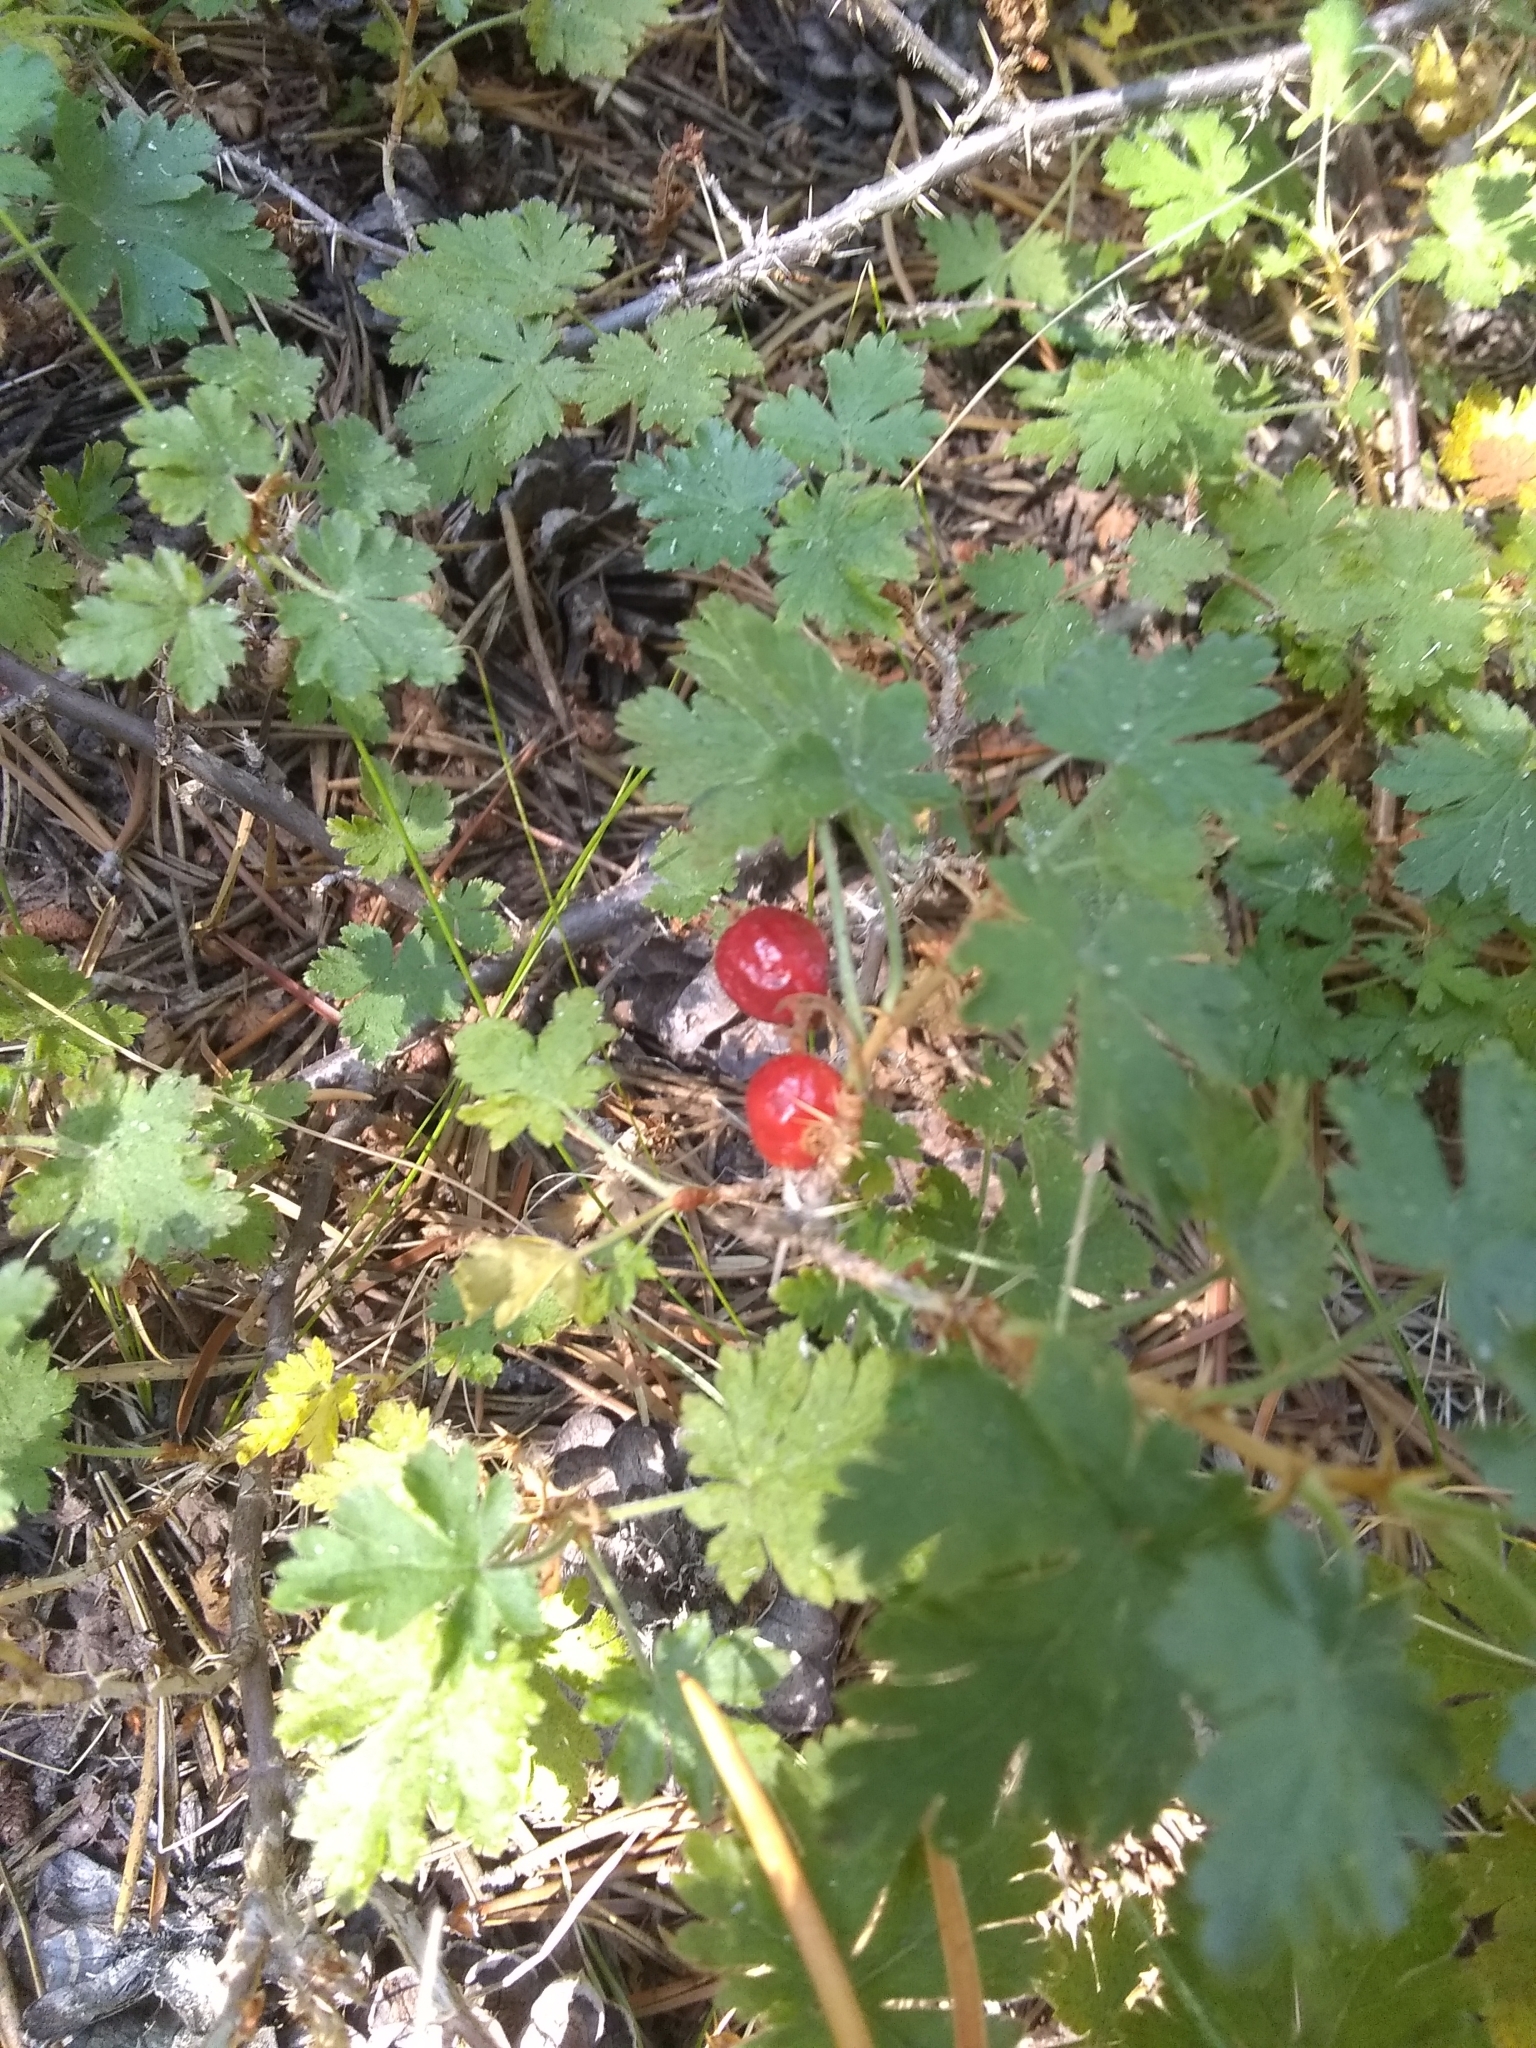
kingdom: Plantae
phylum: Tracheophyta
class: Magnoliopsida
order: Saxifragales
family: Grossulariaceae
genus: Ribes
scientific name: Ribes montigenum
